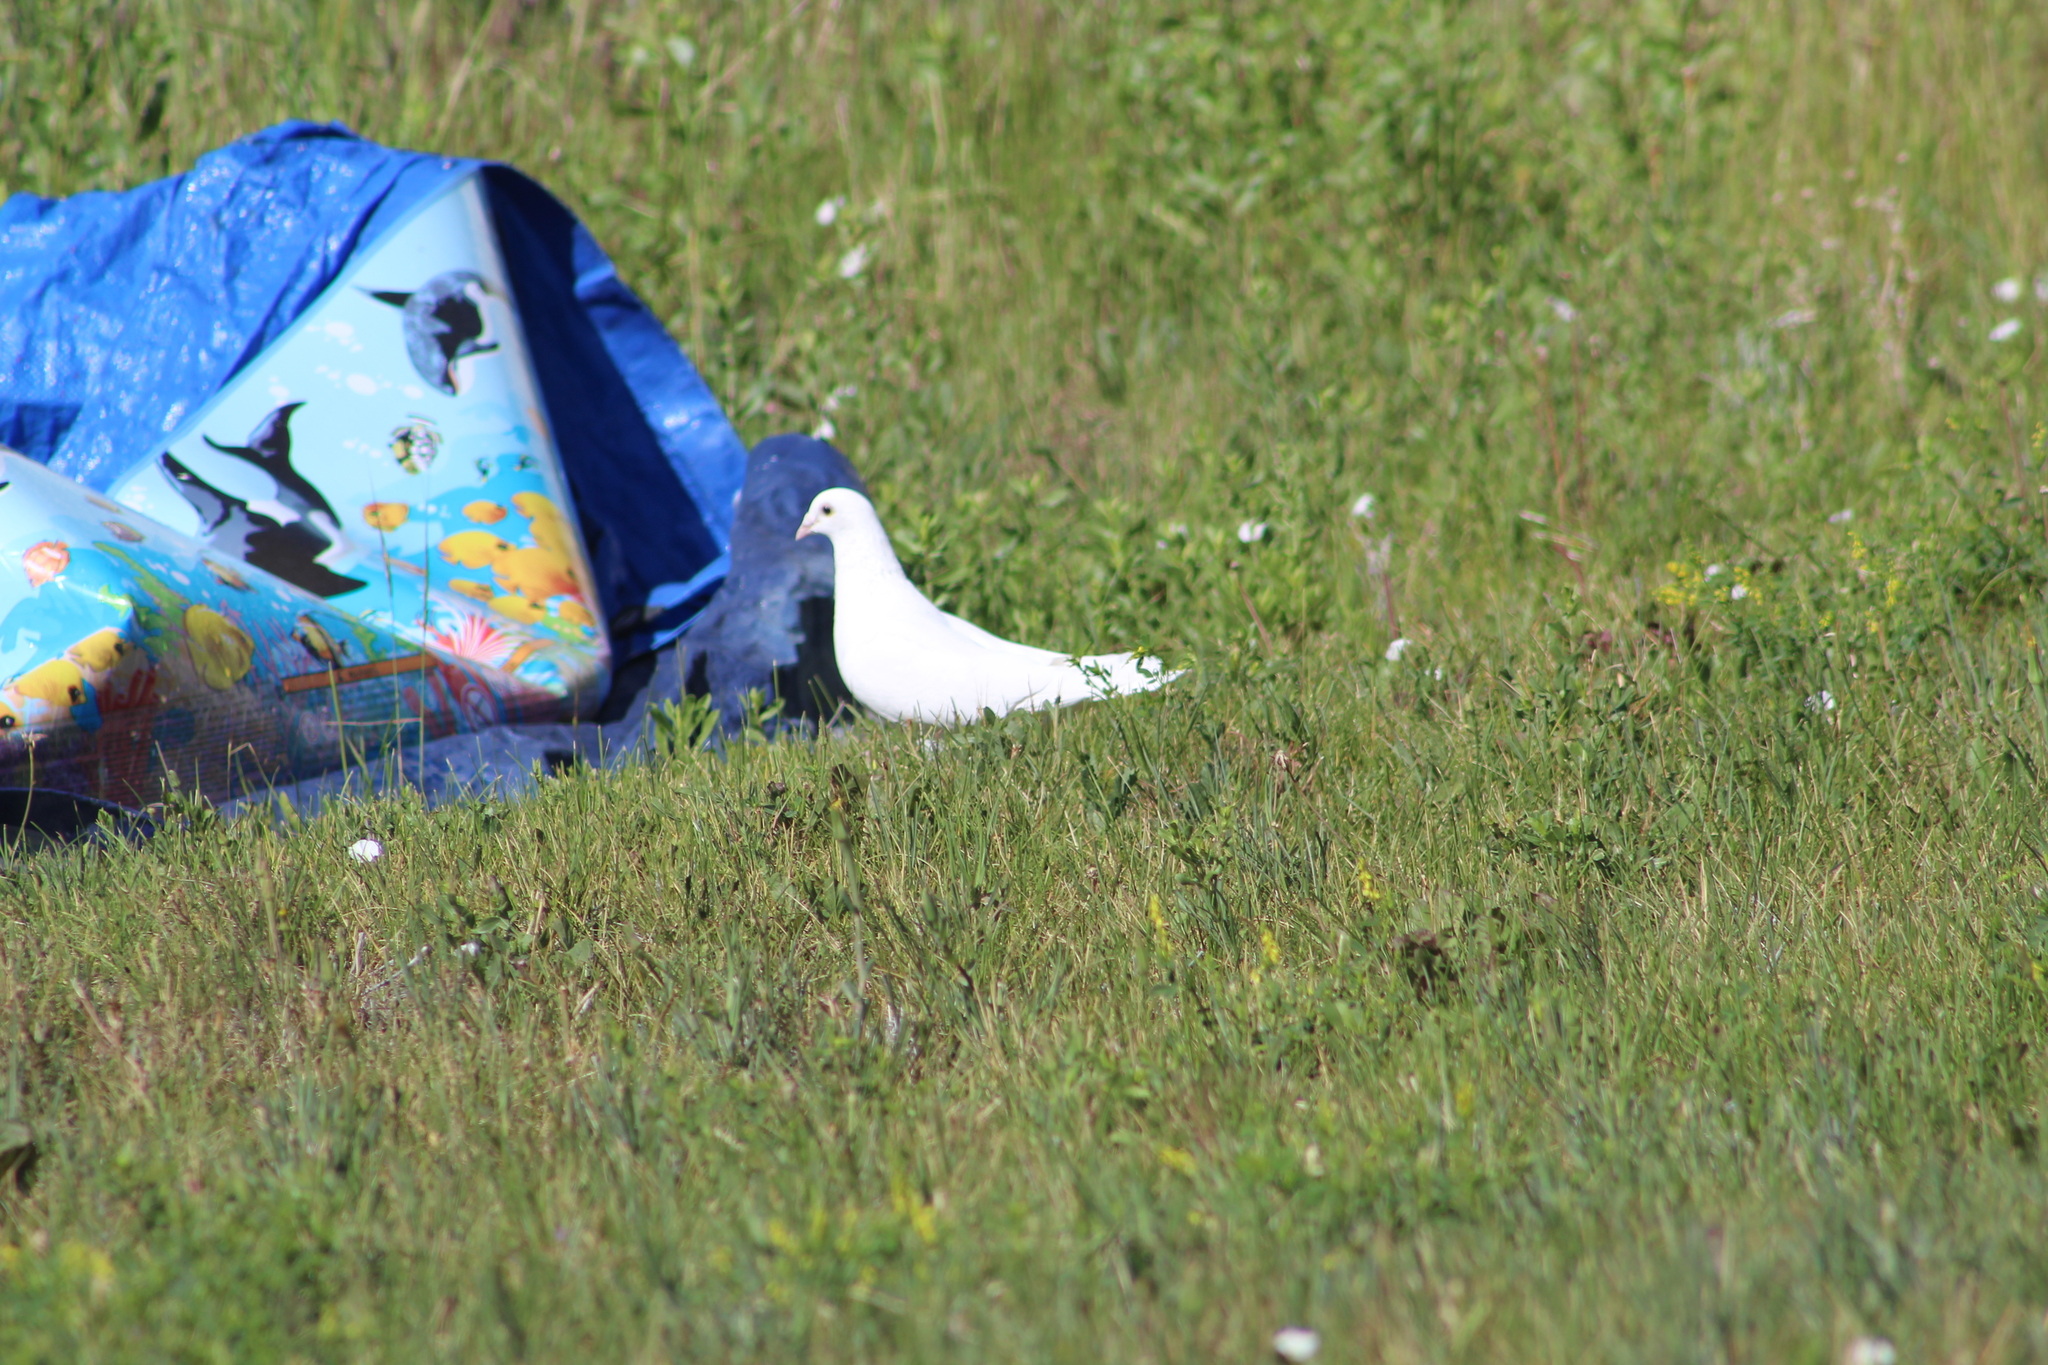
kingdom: Animalia
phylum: Chordata
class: Aves
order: Columbiformes
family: Columbidae
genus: Columba
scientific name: Columba livia
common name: Rock pigeon
